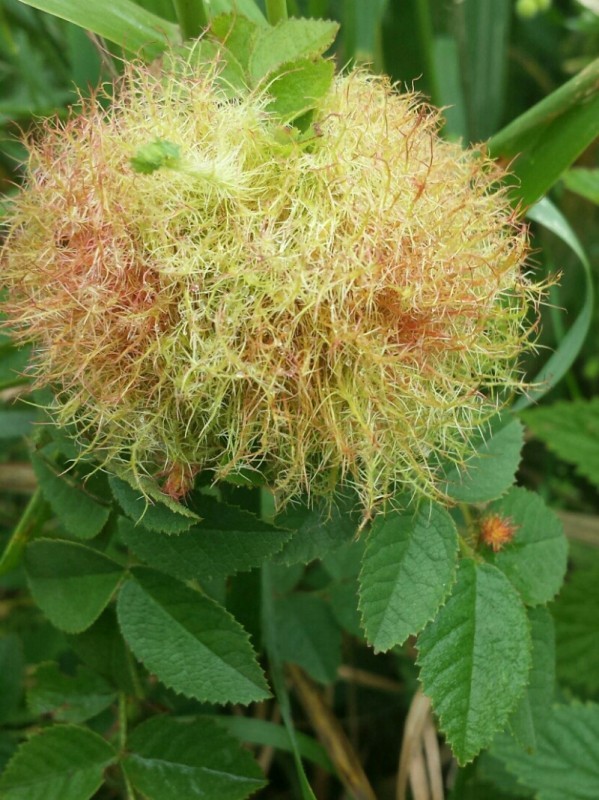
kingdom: Animalia
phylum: Arthropoda
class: Insecta
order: Hymenoptera
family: Cynipidae
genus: Diplolepis
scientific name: Diplolepis rosae
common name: Bedeguar gall
